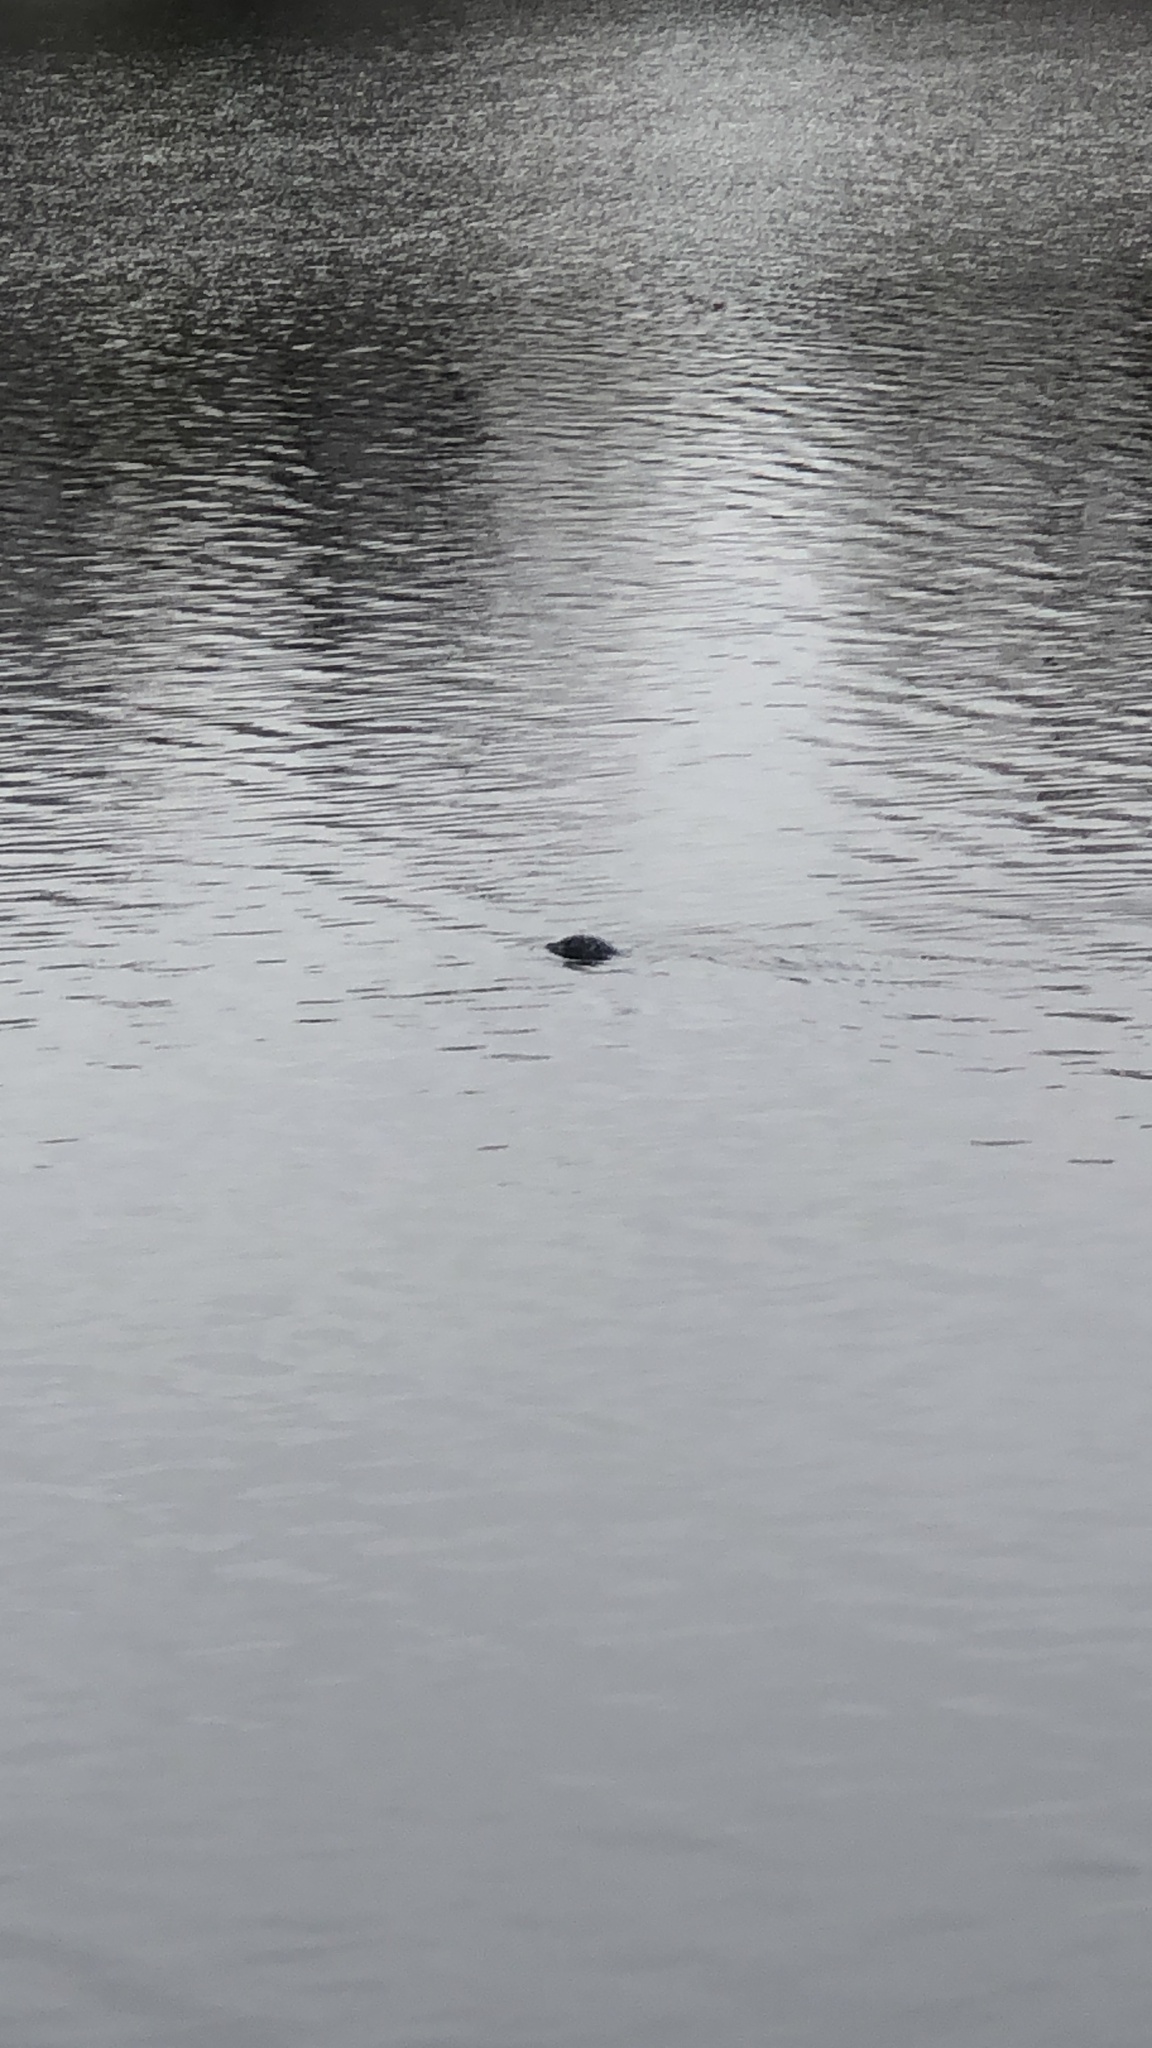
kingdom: Animalia
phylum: Chordata
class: Mammalia
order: Carnivora
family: Phocidae
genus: Phoca
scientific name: Phoca vitulina
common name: Harbor seal
